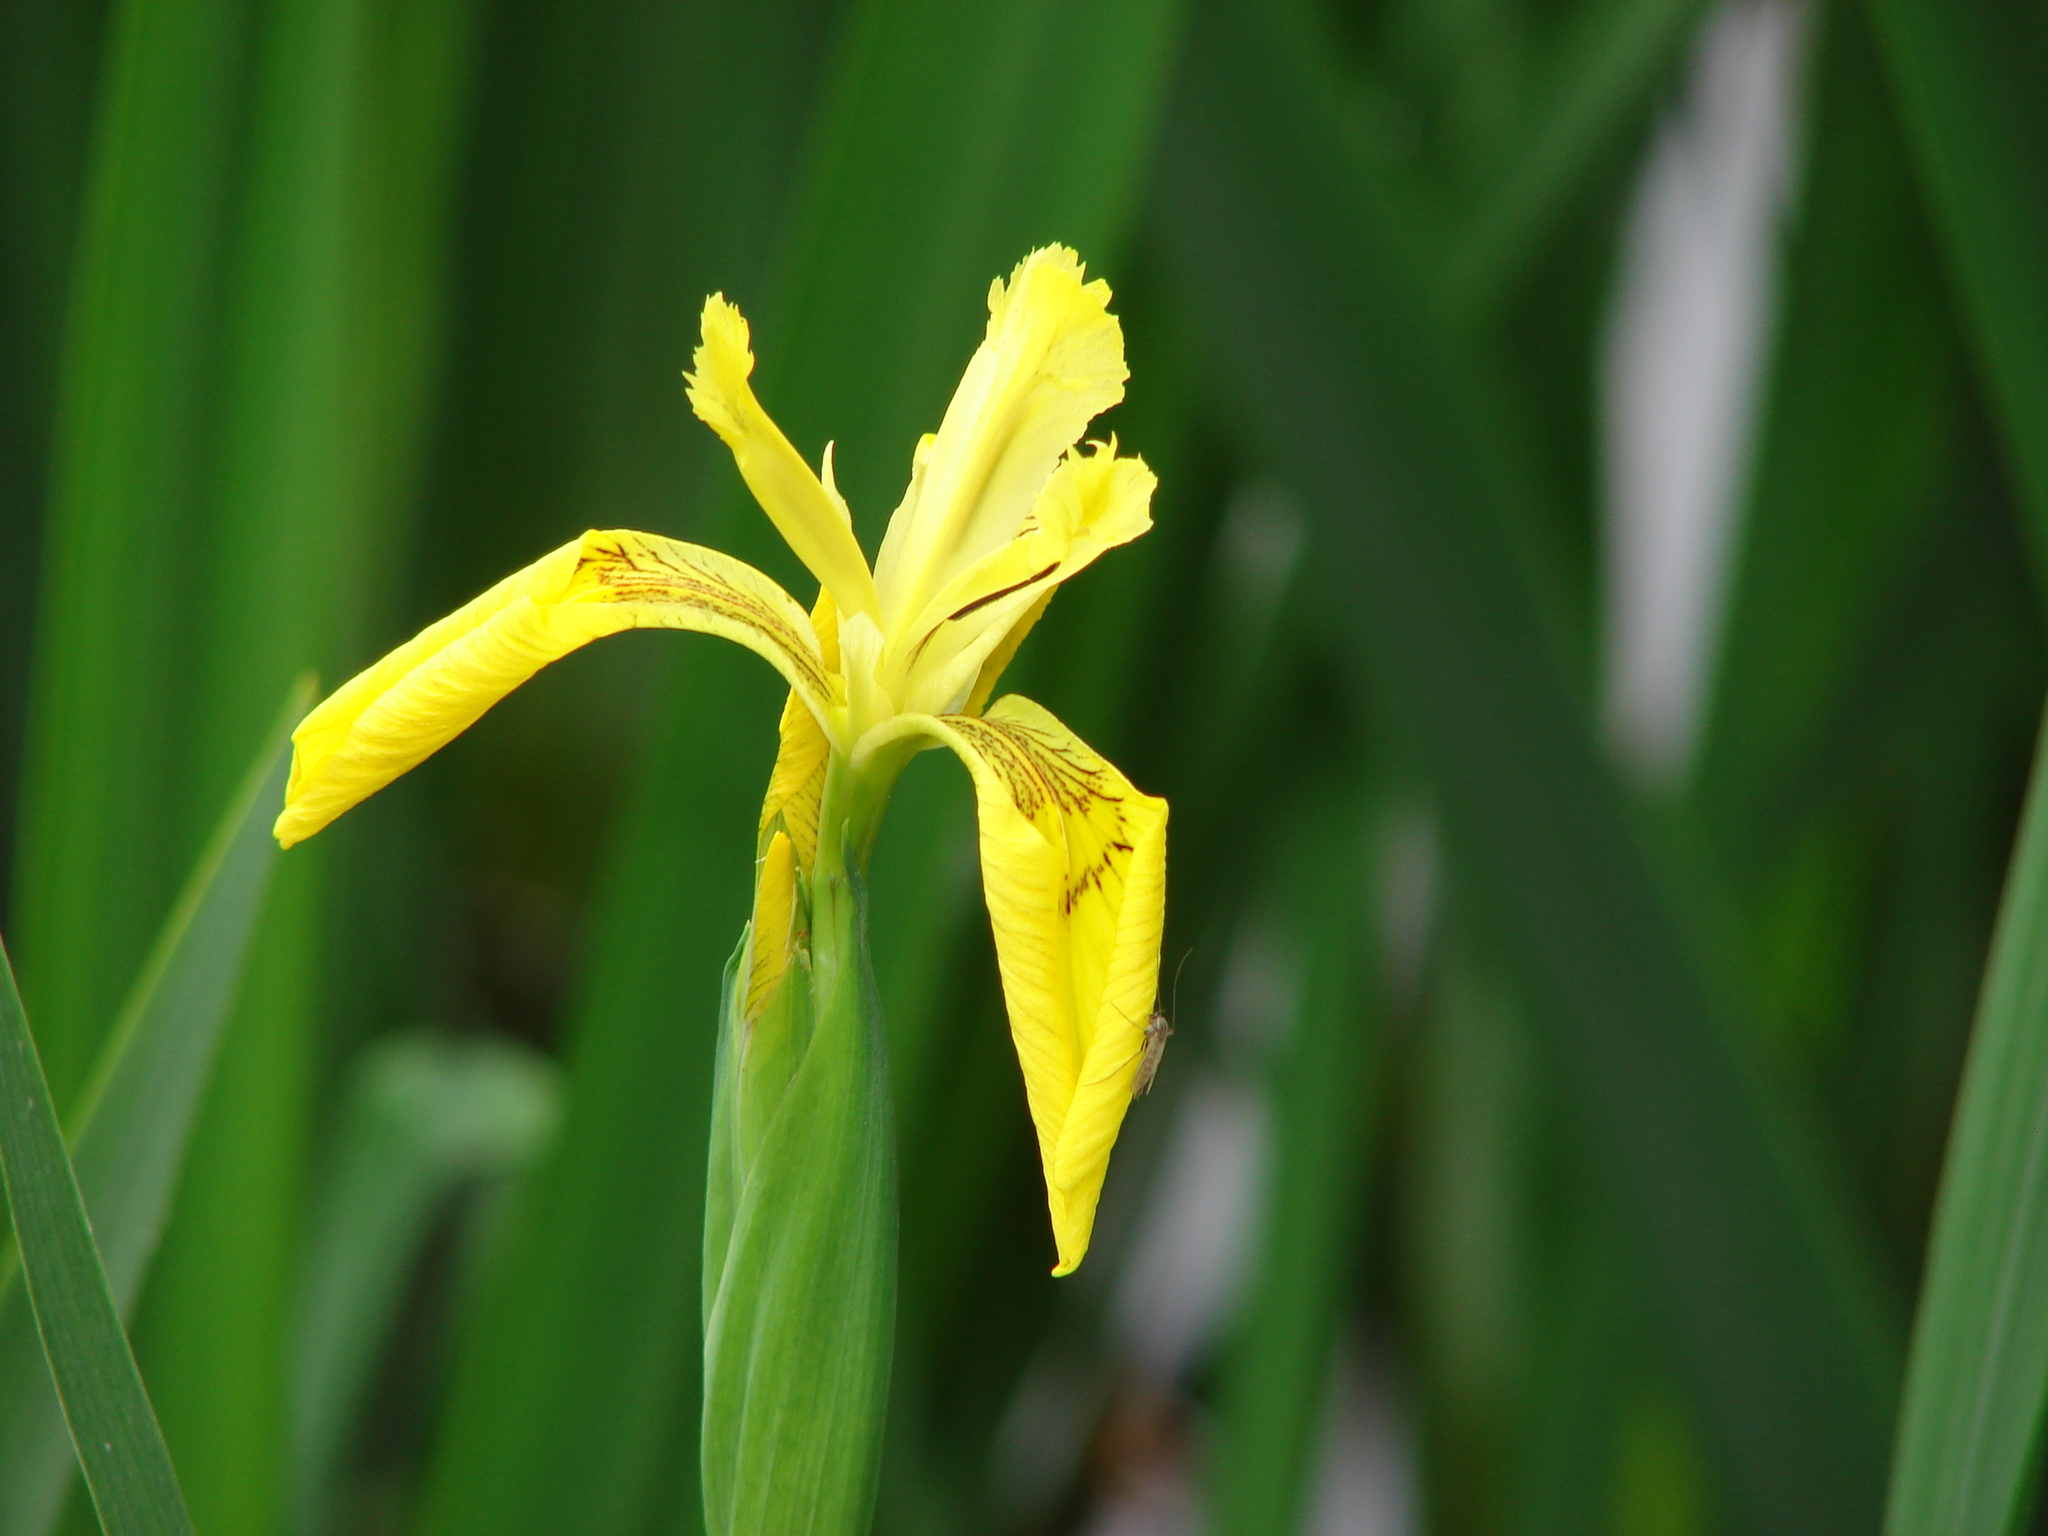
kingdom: Plantae
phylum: Tracheophyta
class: Liliopsida
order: Asparagales
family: Iridaceae
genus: Iris
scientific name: Iris pseudacorus
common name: Yellow flag
